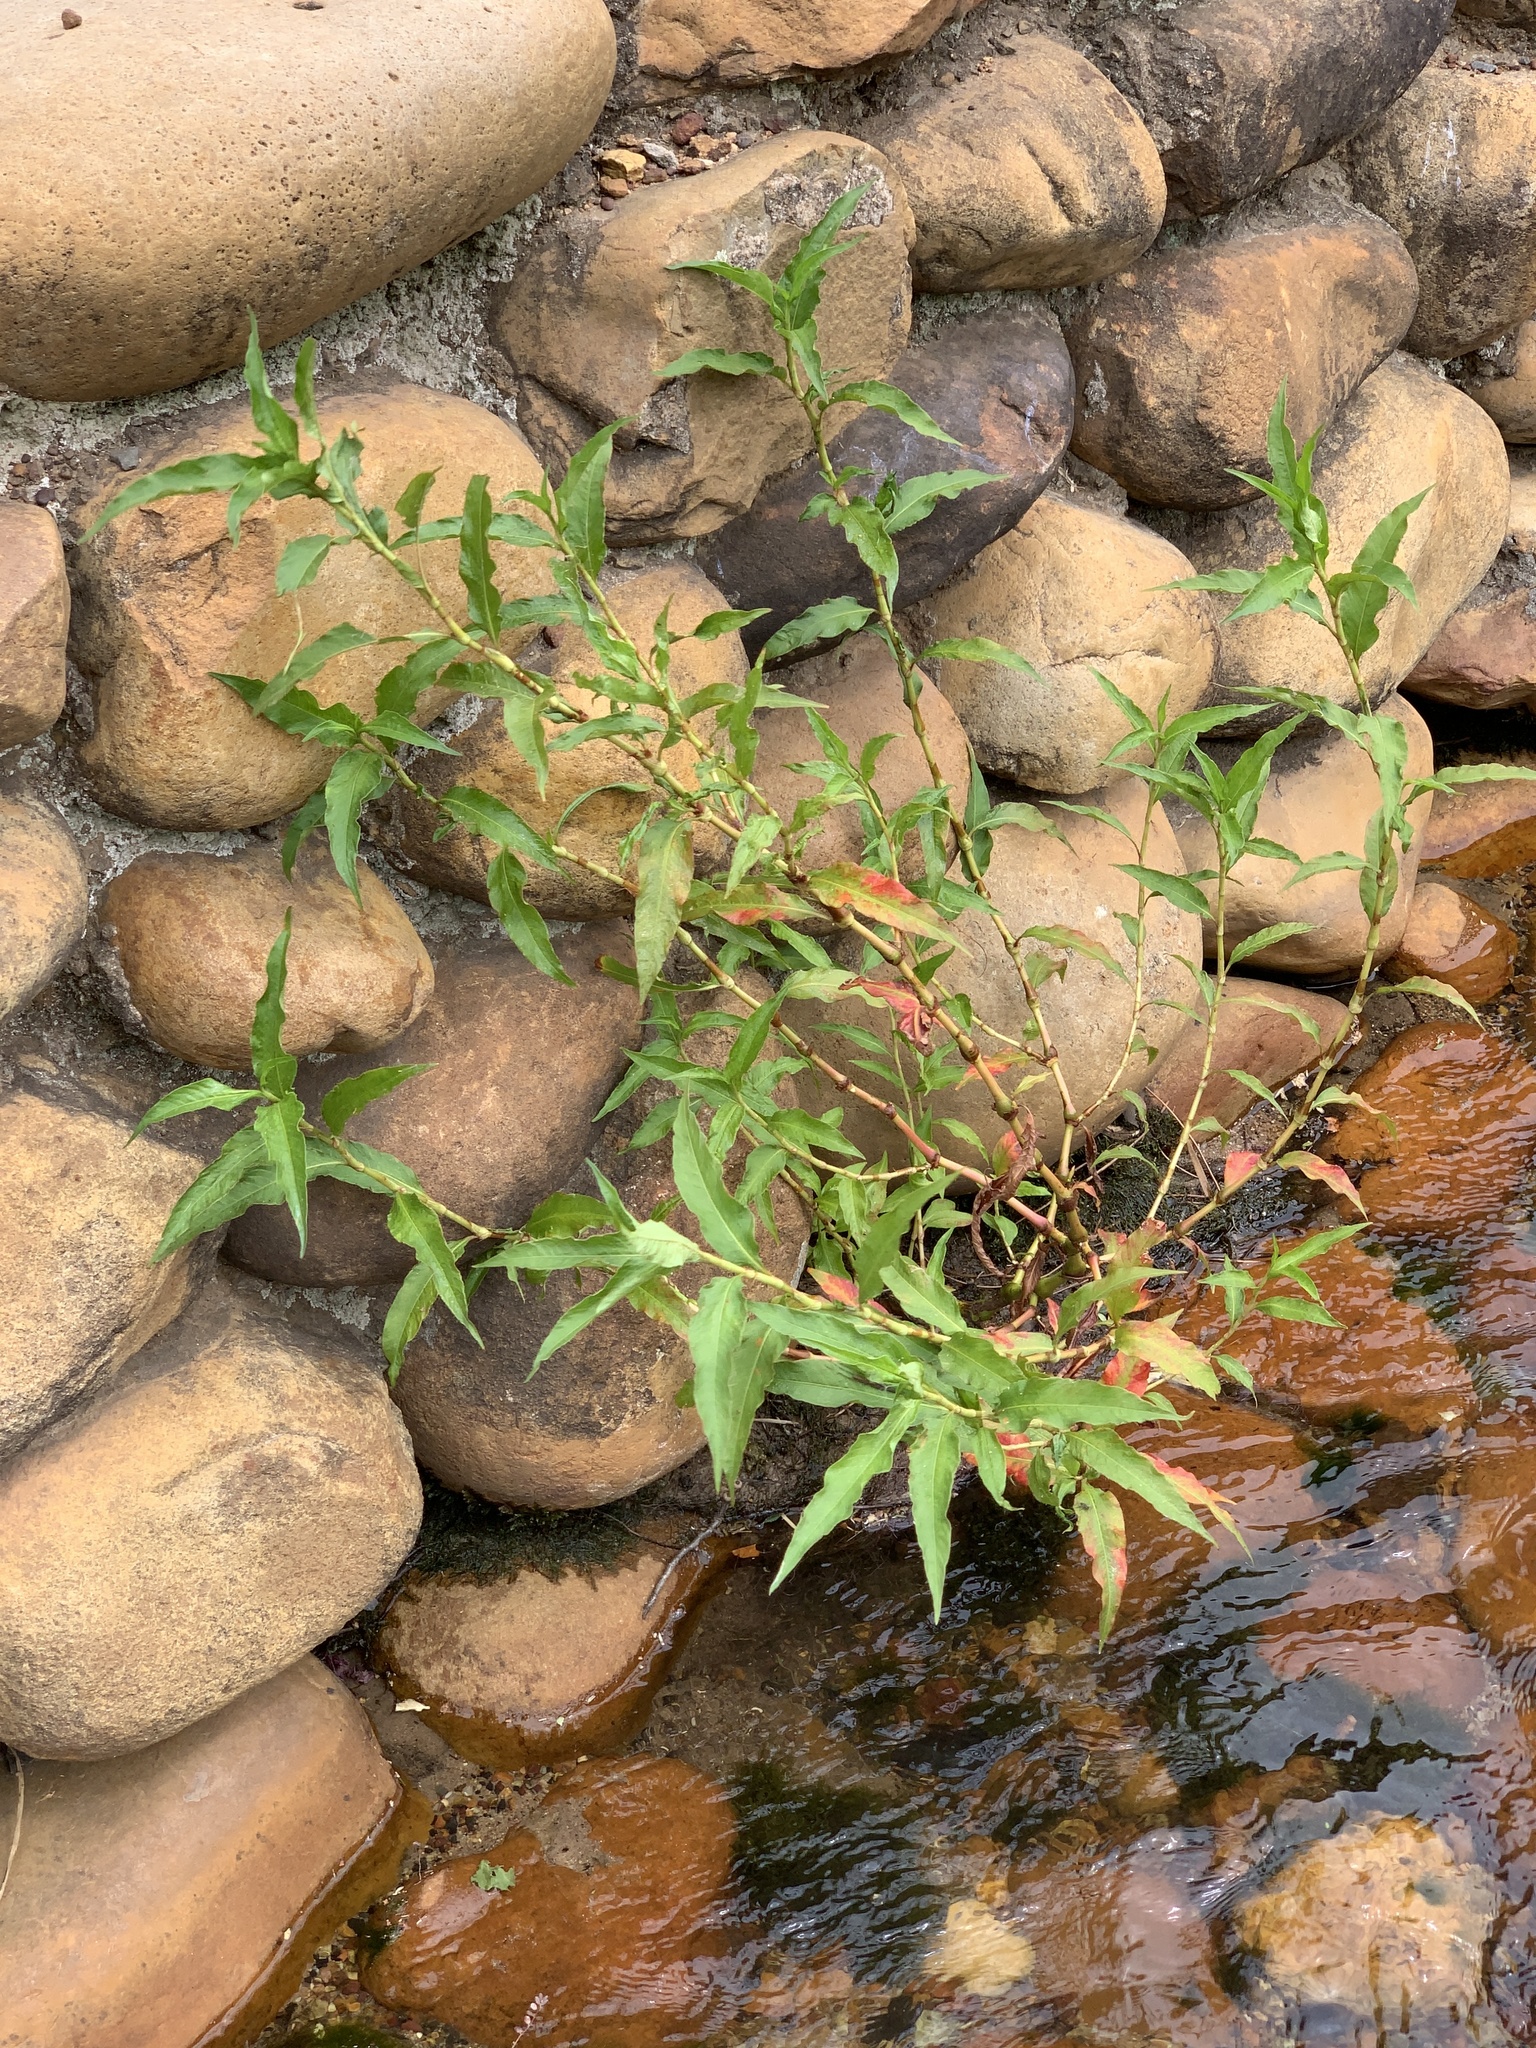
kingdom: Plantae
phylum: Tracheophyta
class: Magnoliopsida
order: Caryophyllales
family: Polygonaceae
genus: Persicaria
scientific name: Persicaria lapathifolia
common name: Curlytop knotweed
